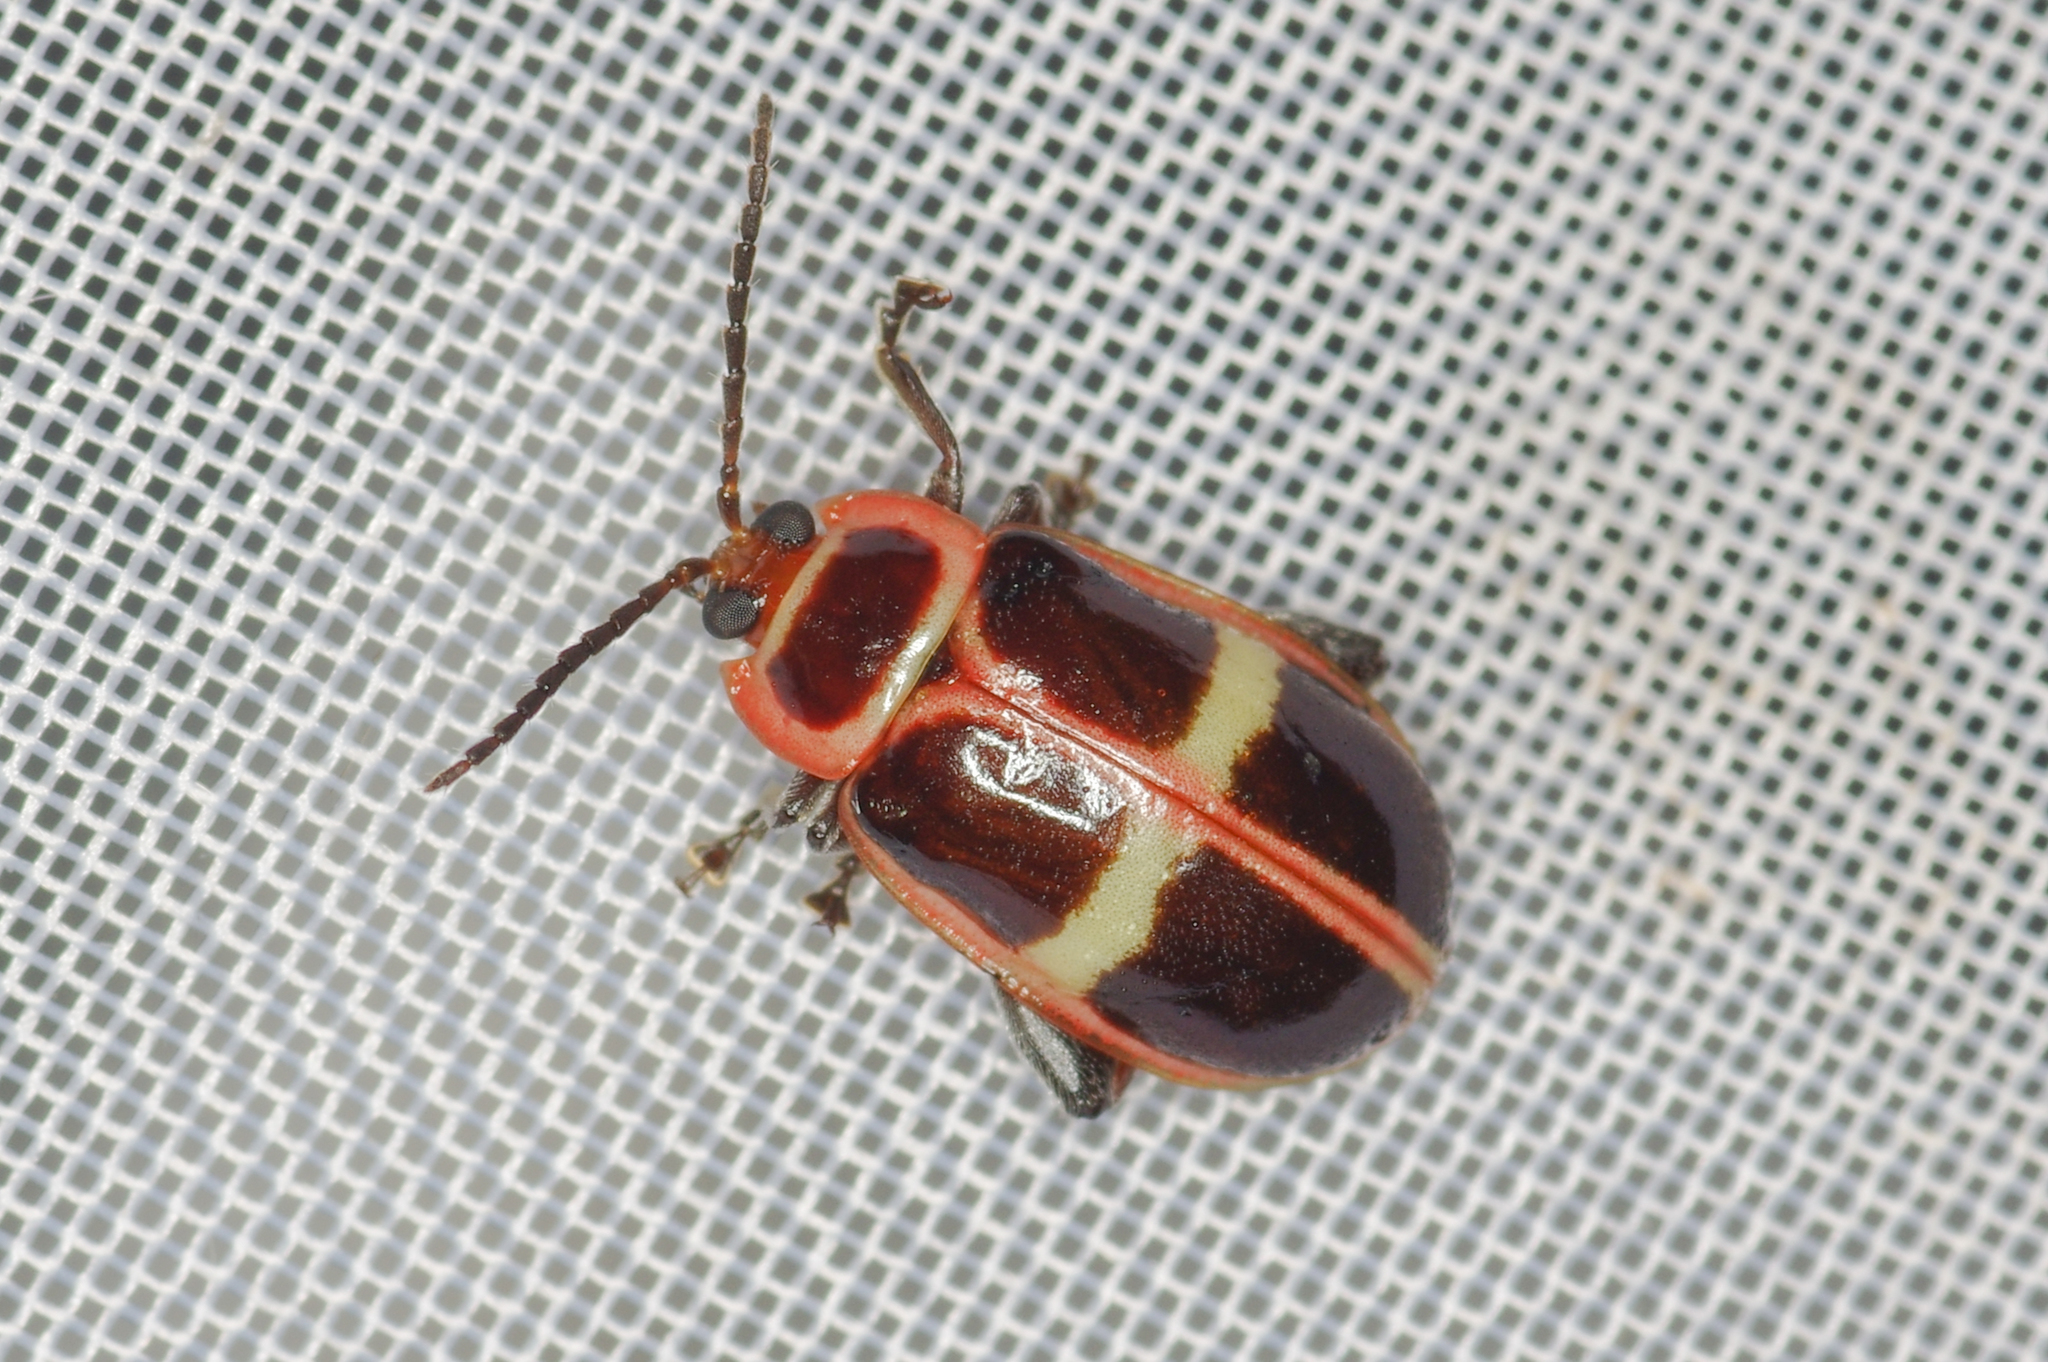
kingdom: Animalia
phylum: Arthropoda
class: Insecta
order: Coleoptera
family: Chrysomelidae
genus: Asphaera
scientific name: Asphaera
